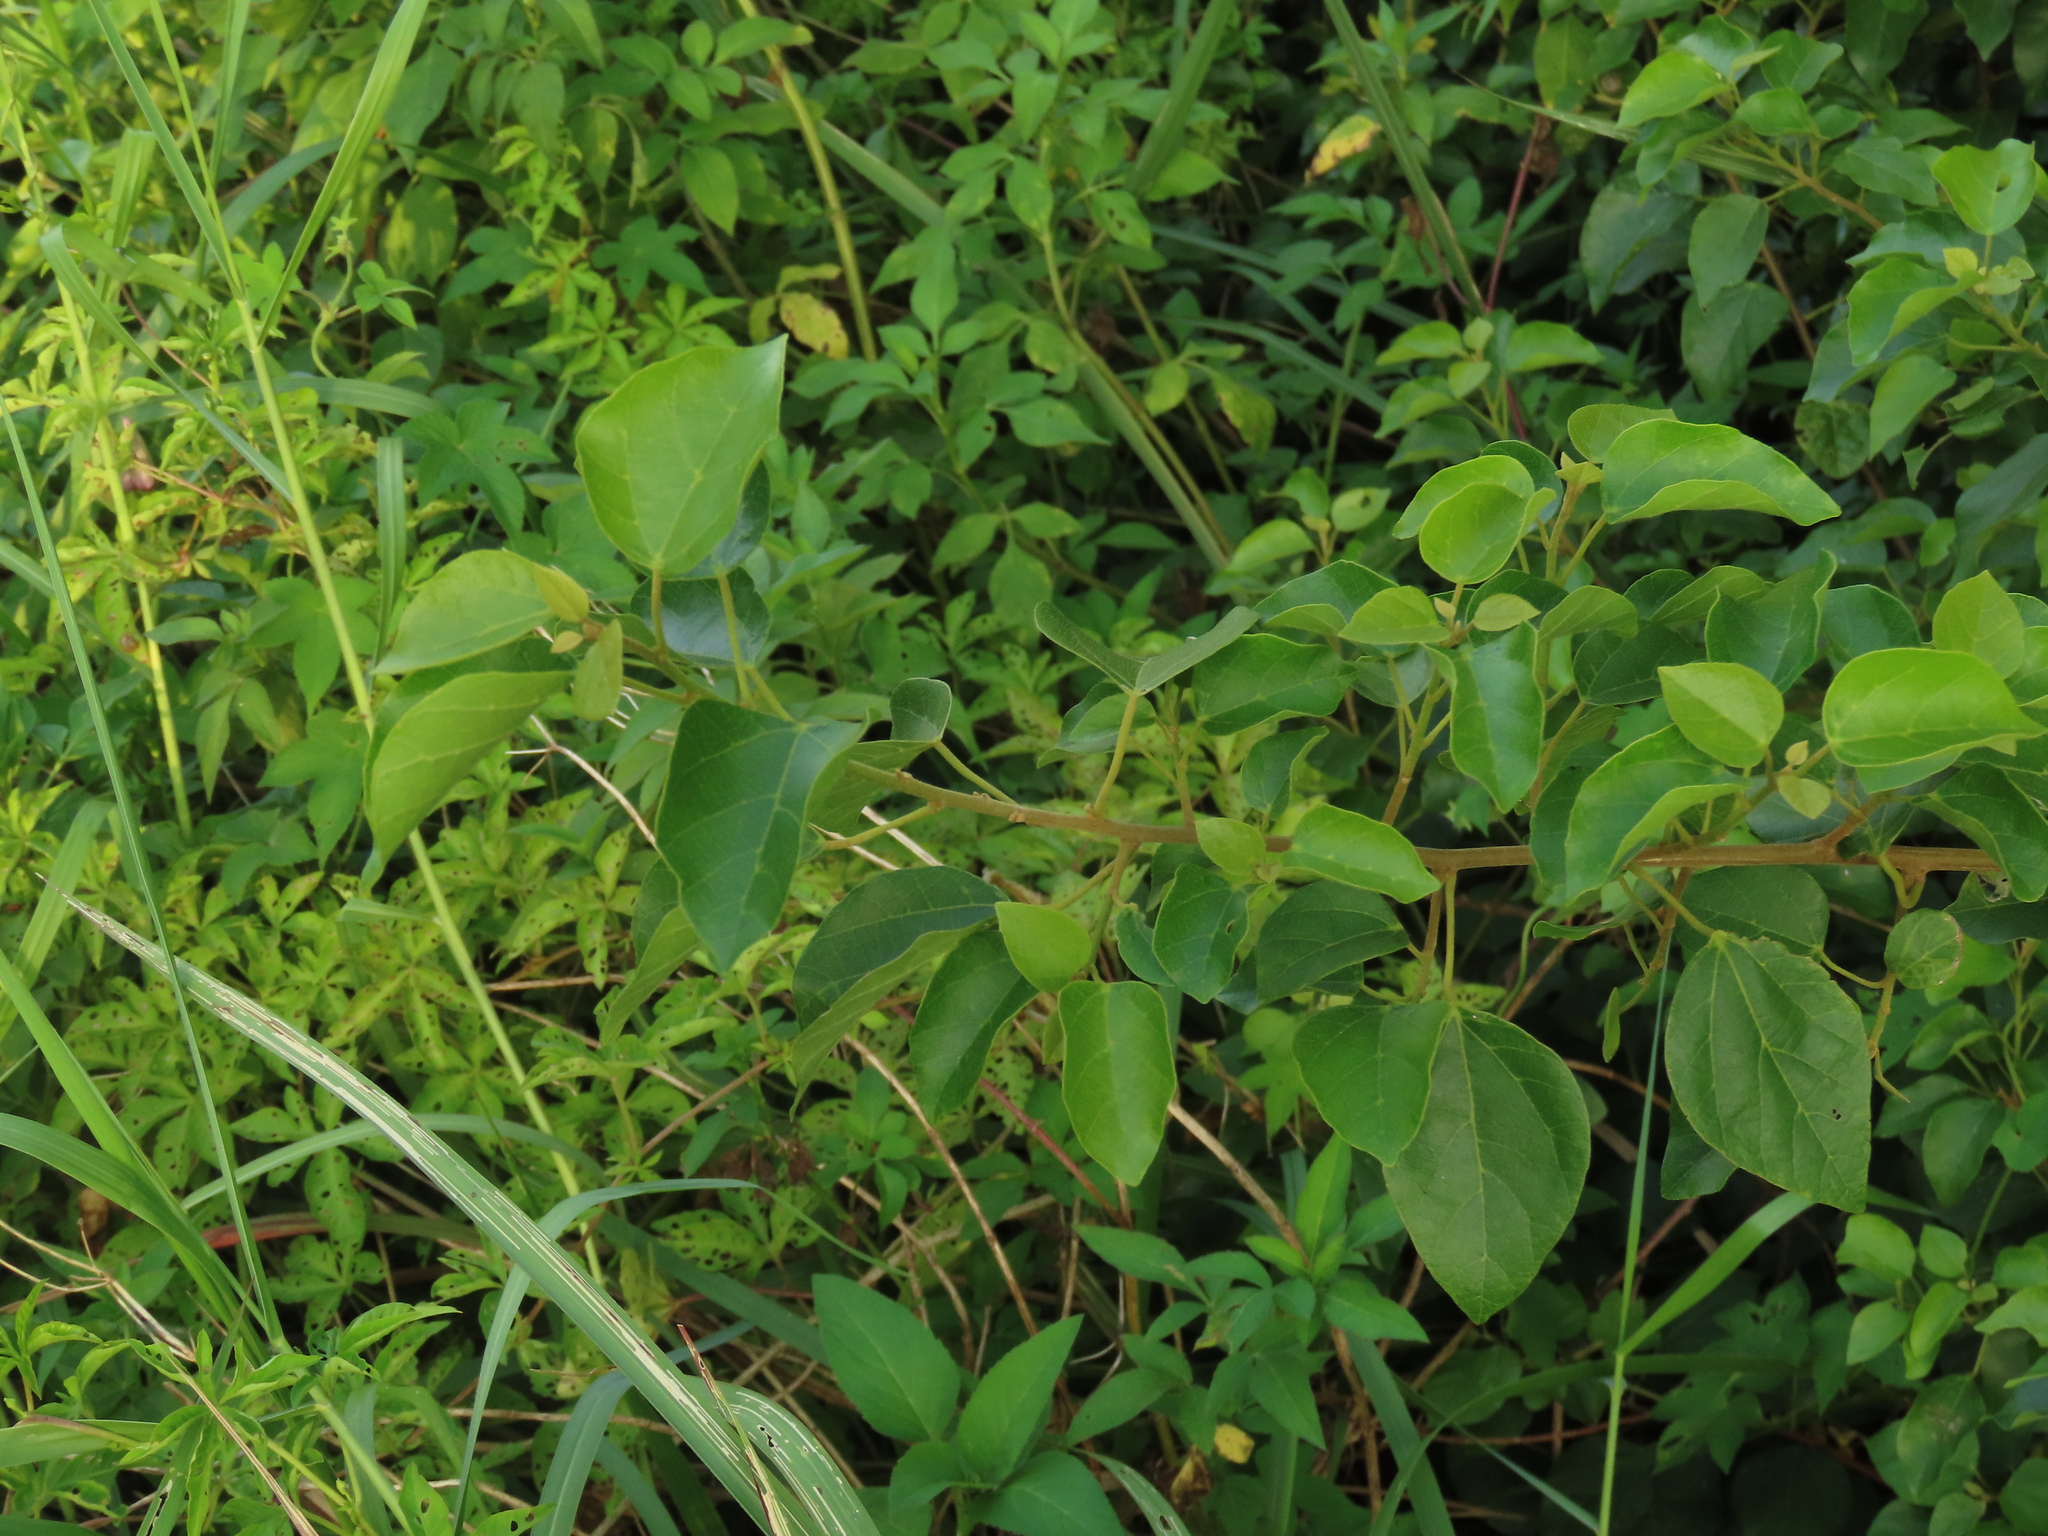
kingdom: Plantae
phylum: Tracheophyta
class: Magnoliopsida
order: Malpighiales
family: Euphorbiaceae
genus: Mallotus
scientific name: Mallotus repandus
